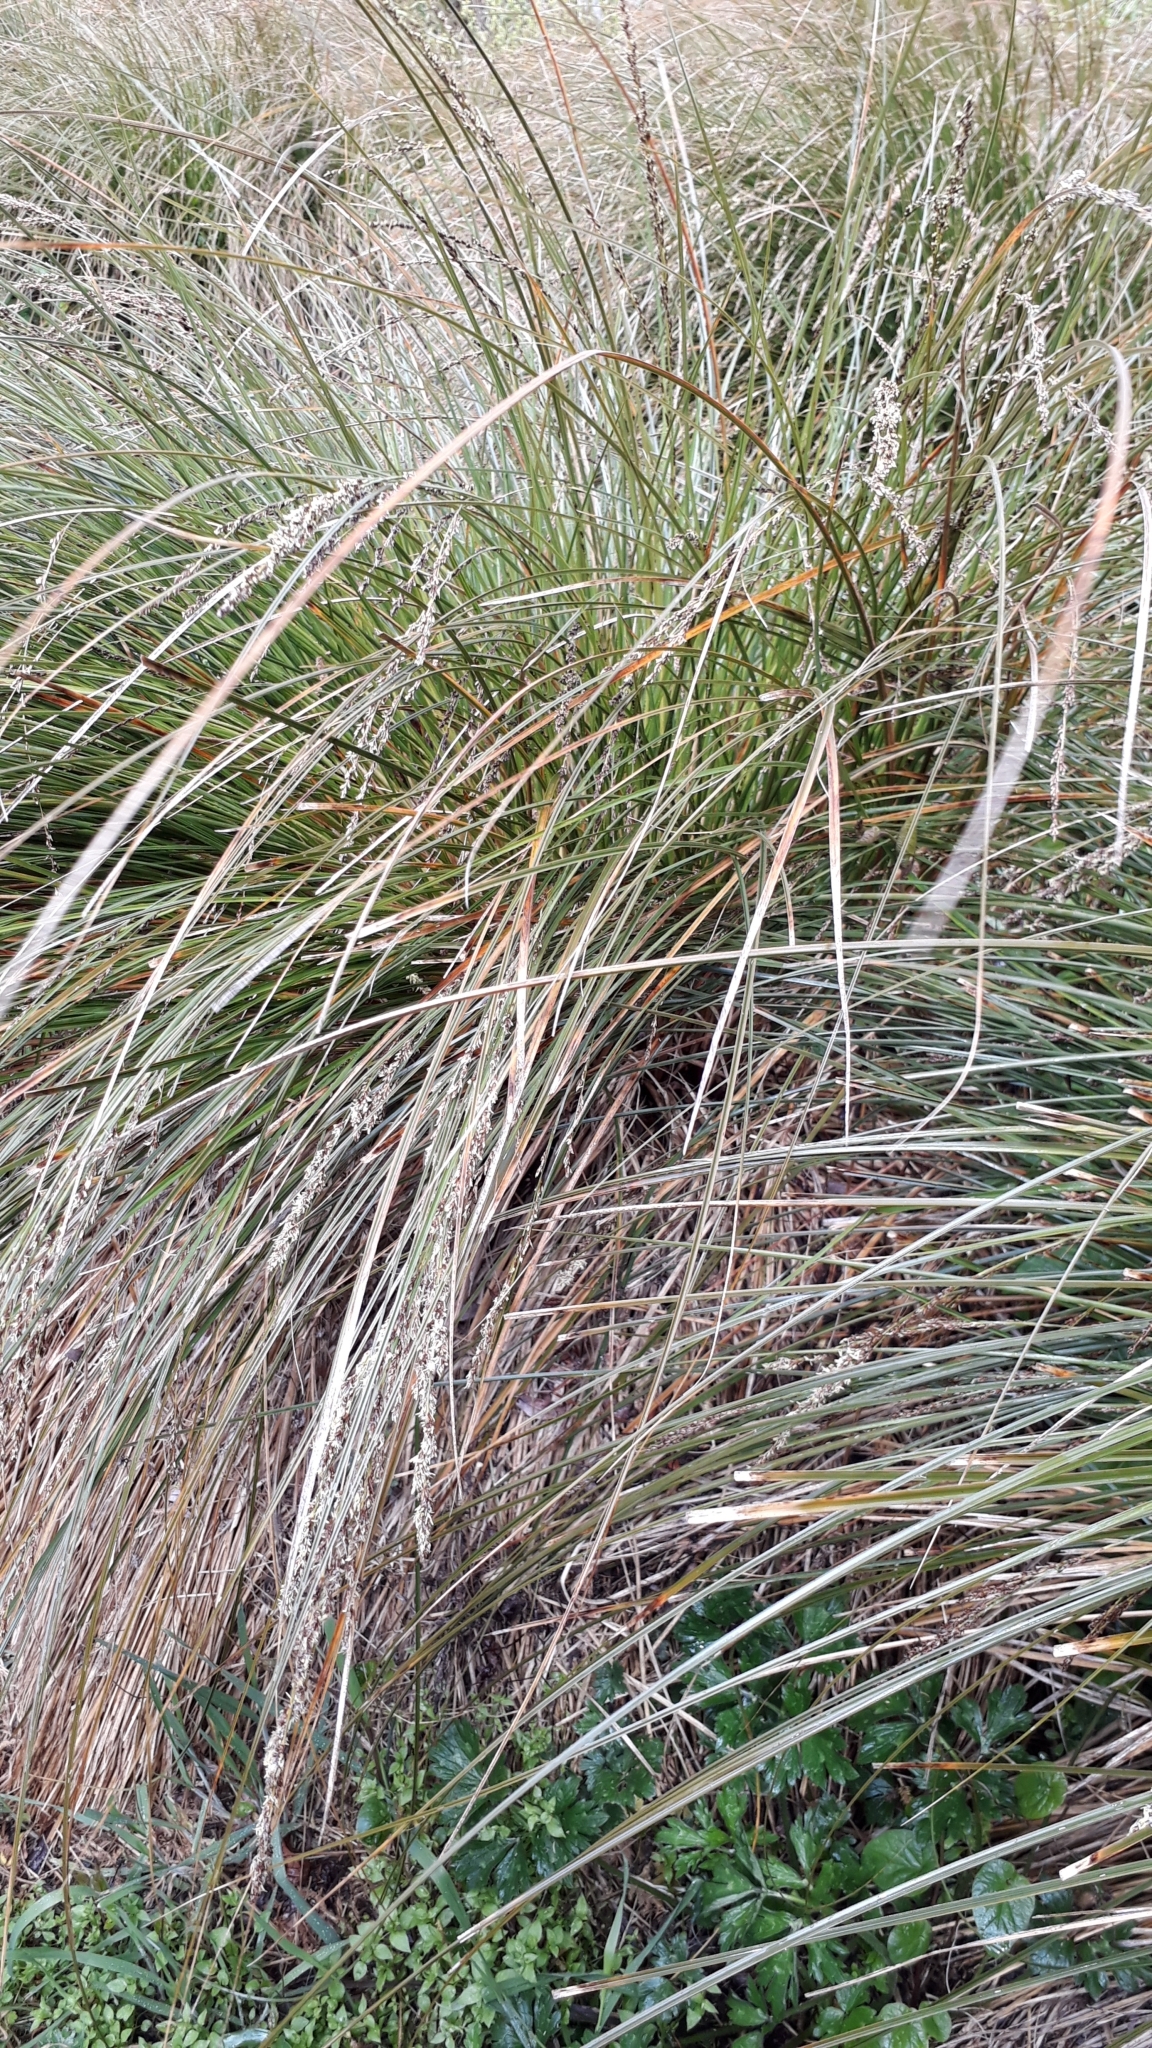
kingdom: Plantae
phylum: Tracheophyta
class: Liliopsida
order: Poales
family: Cyperaceae
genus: Carex
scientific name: Carex secta
